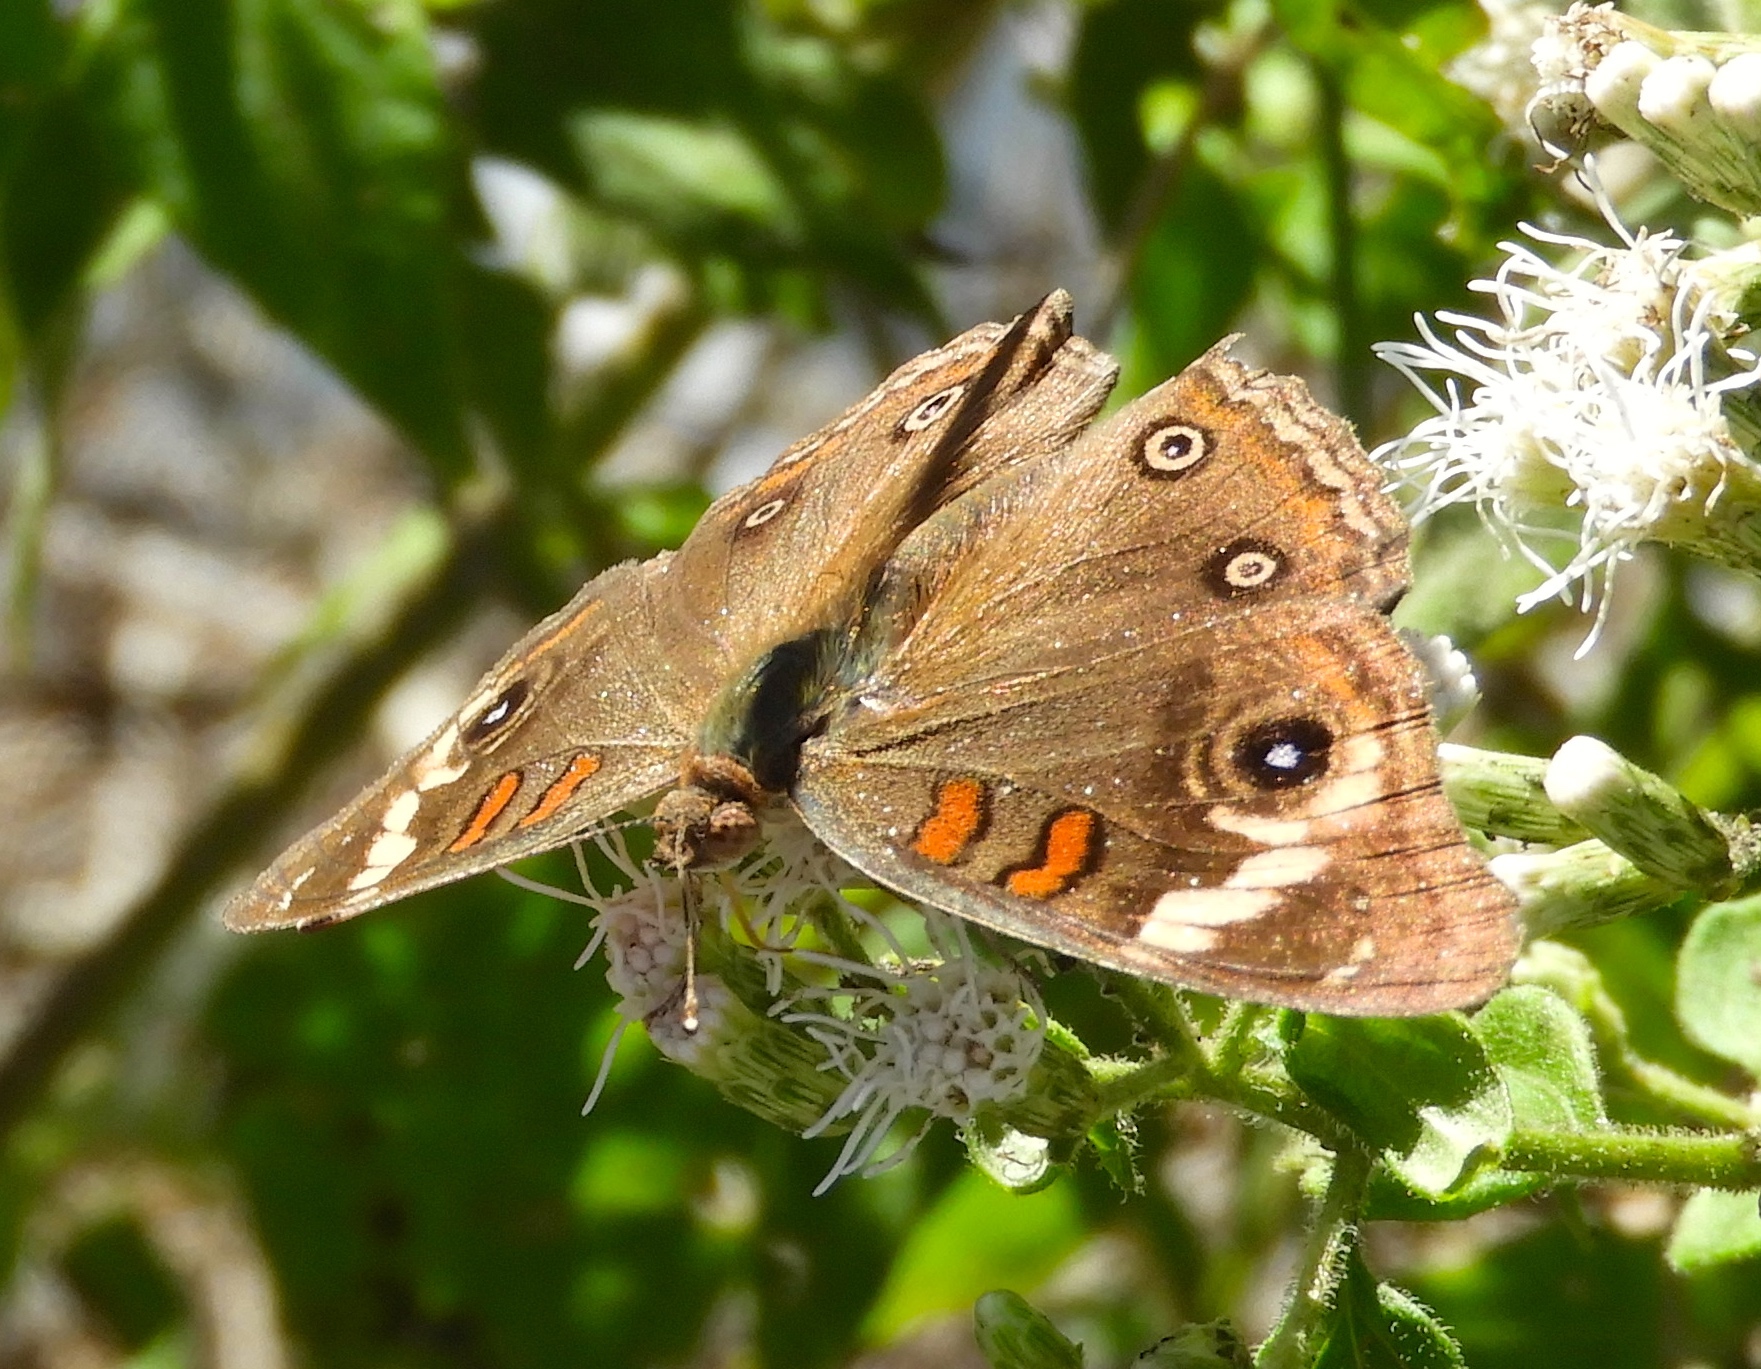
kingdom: Animalia
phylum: Arthropoda
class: Insecta
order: Lepidoptera
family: Nymphalidae
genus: Junonia
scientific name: Junonia
